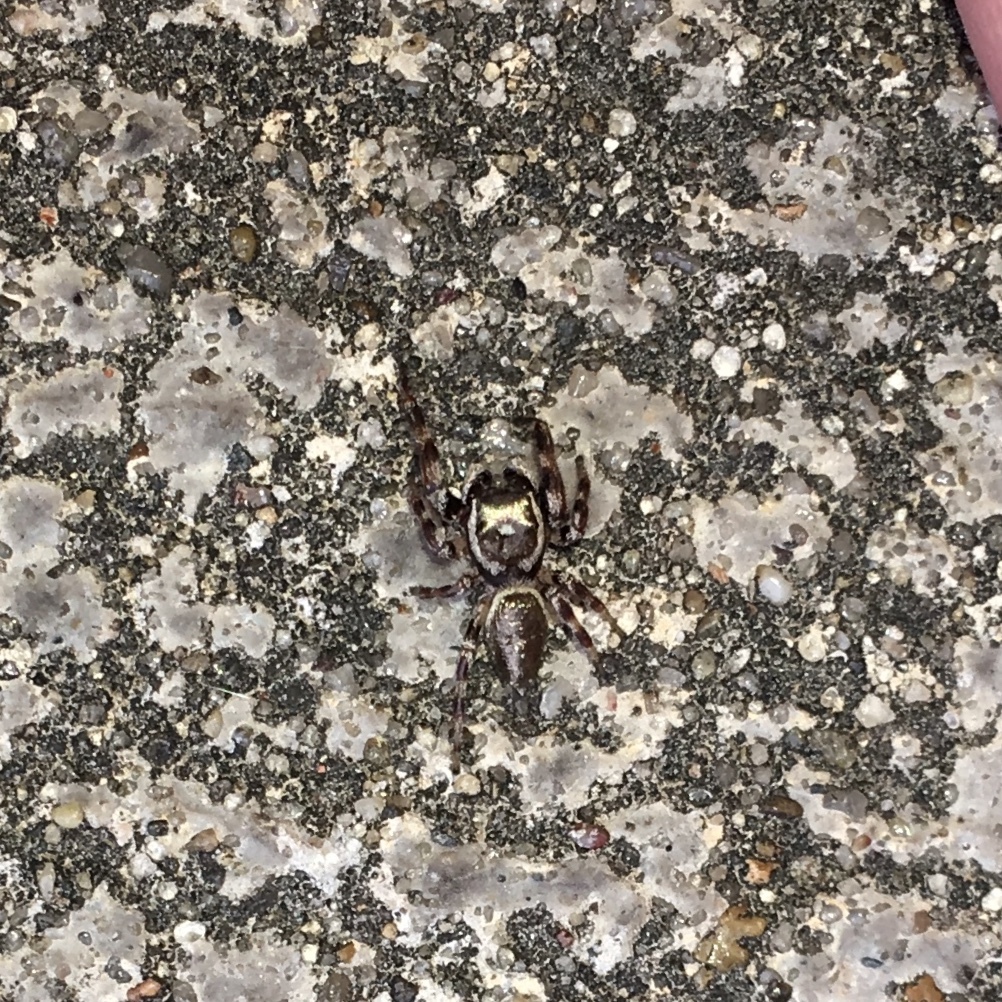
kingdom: Animalia
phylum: Arthropoda
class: Arachnida
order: Araneae
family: Salticidae
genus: Eris
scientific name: Eris floridana
